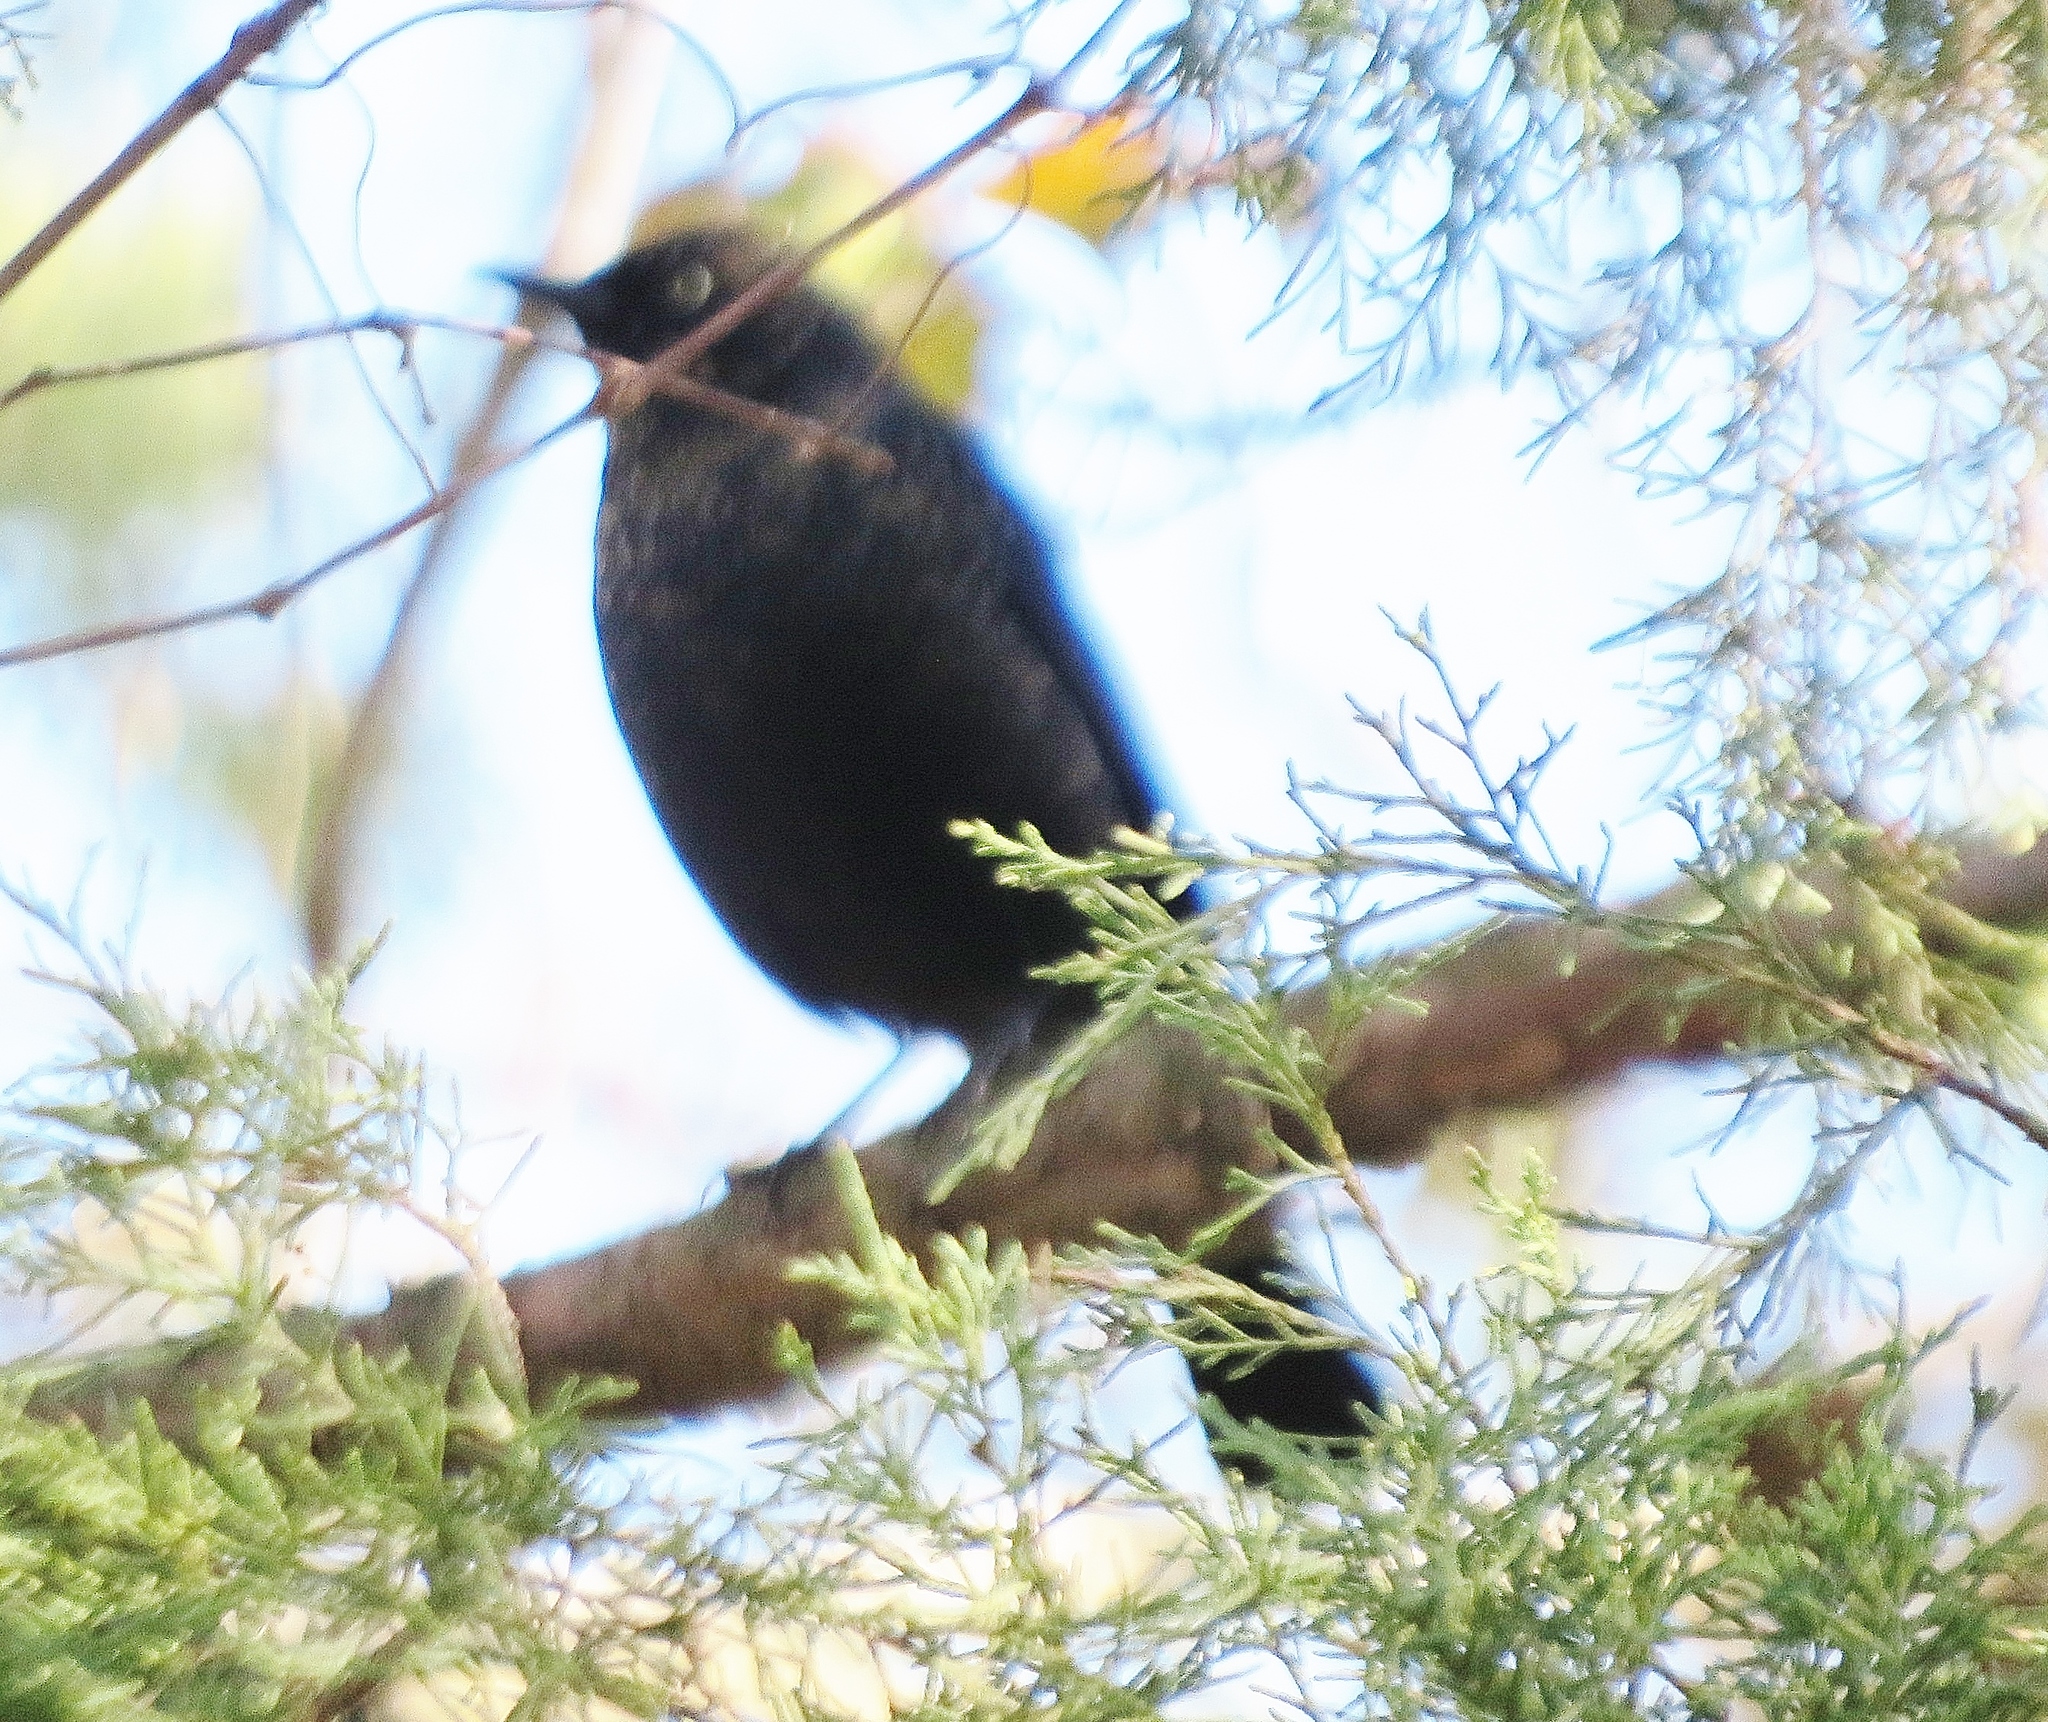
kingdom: Animalia
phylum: Chordata
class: Aves
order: Passeriformes
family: Icteridae
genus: Euphagus
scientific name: Euphagus carolinus
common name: Rusty blackbird
